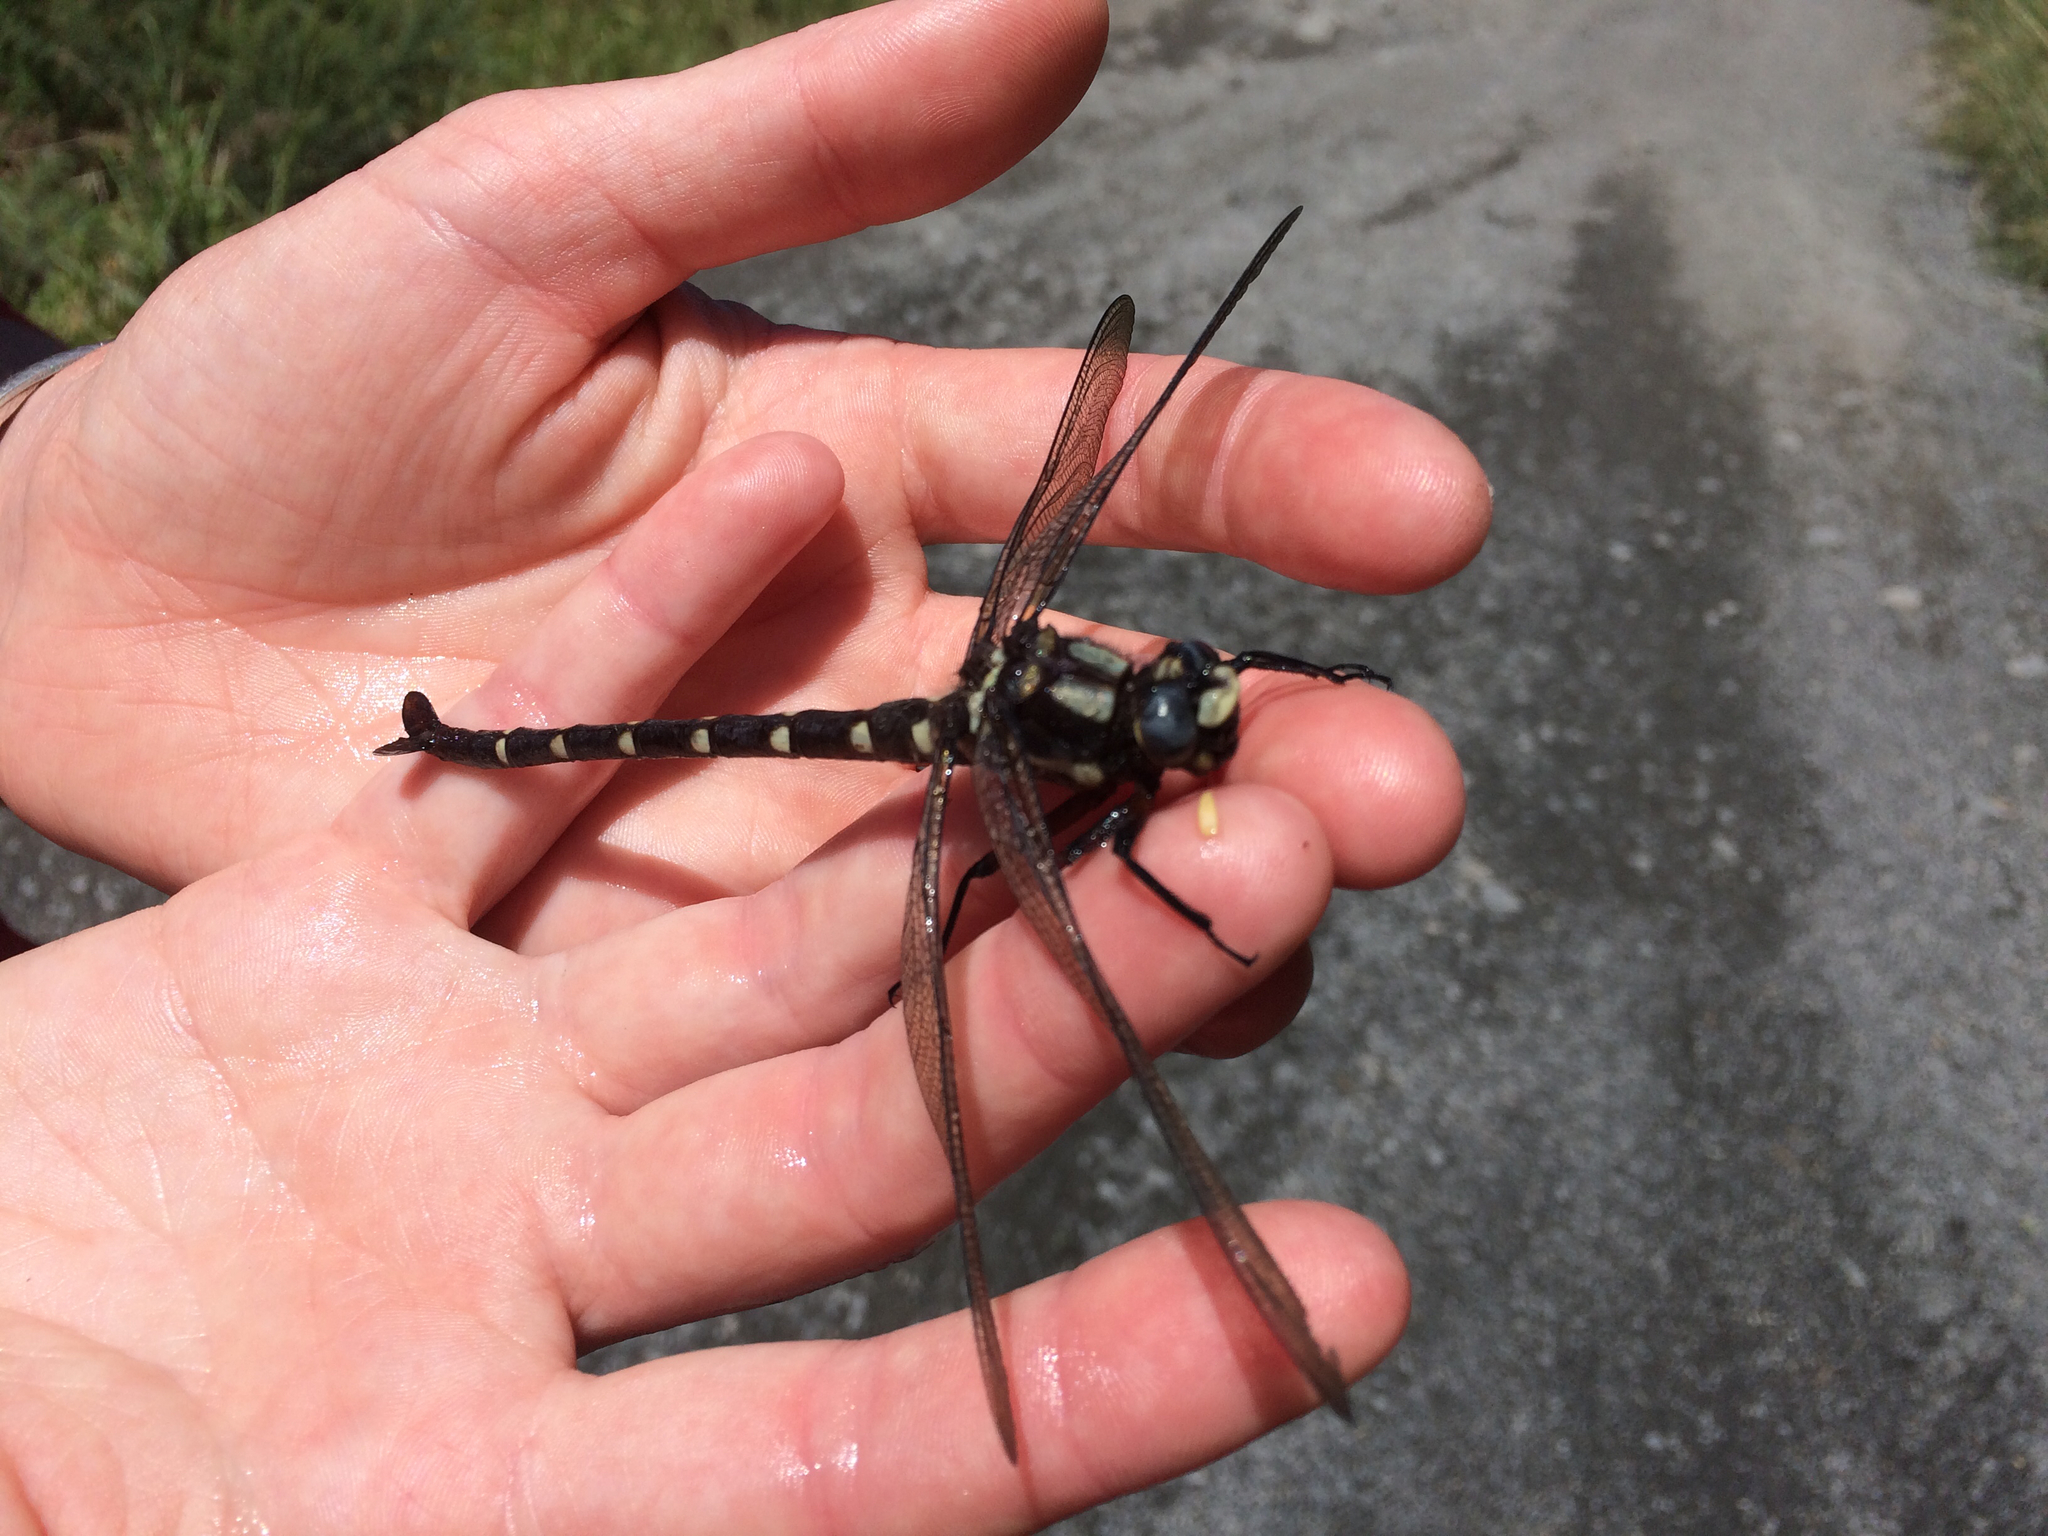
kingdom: Animalia
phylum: Arthropoda
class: Insecta
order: Odonata
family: Petaluridae
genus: Uropetala
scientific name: Uropetala carovei
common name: Bush giant dragonfly
